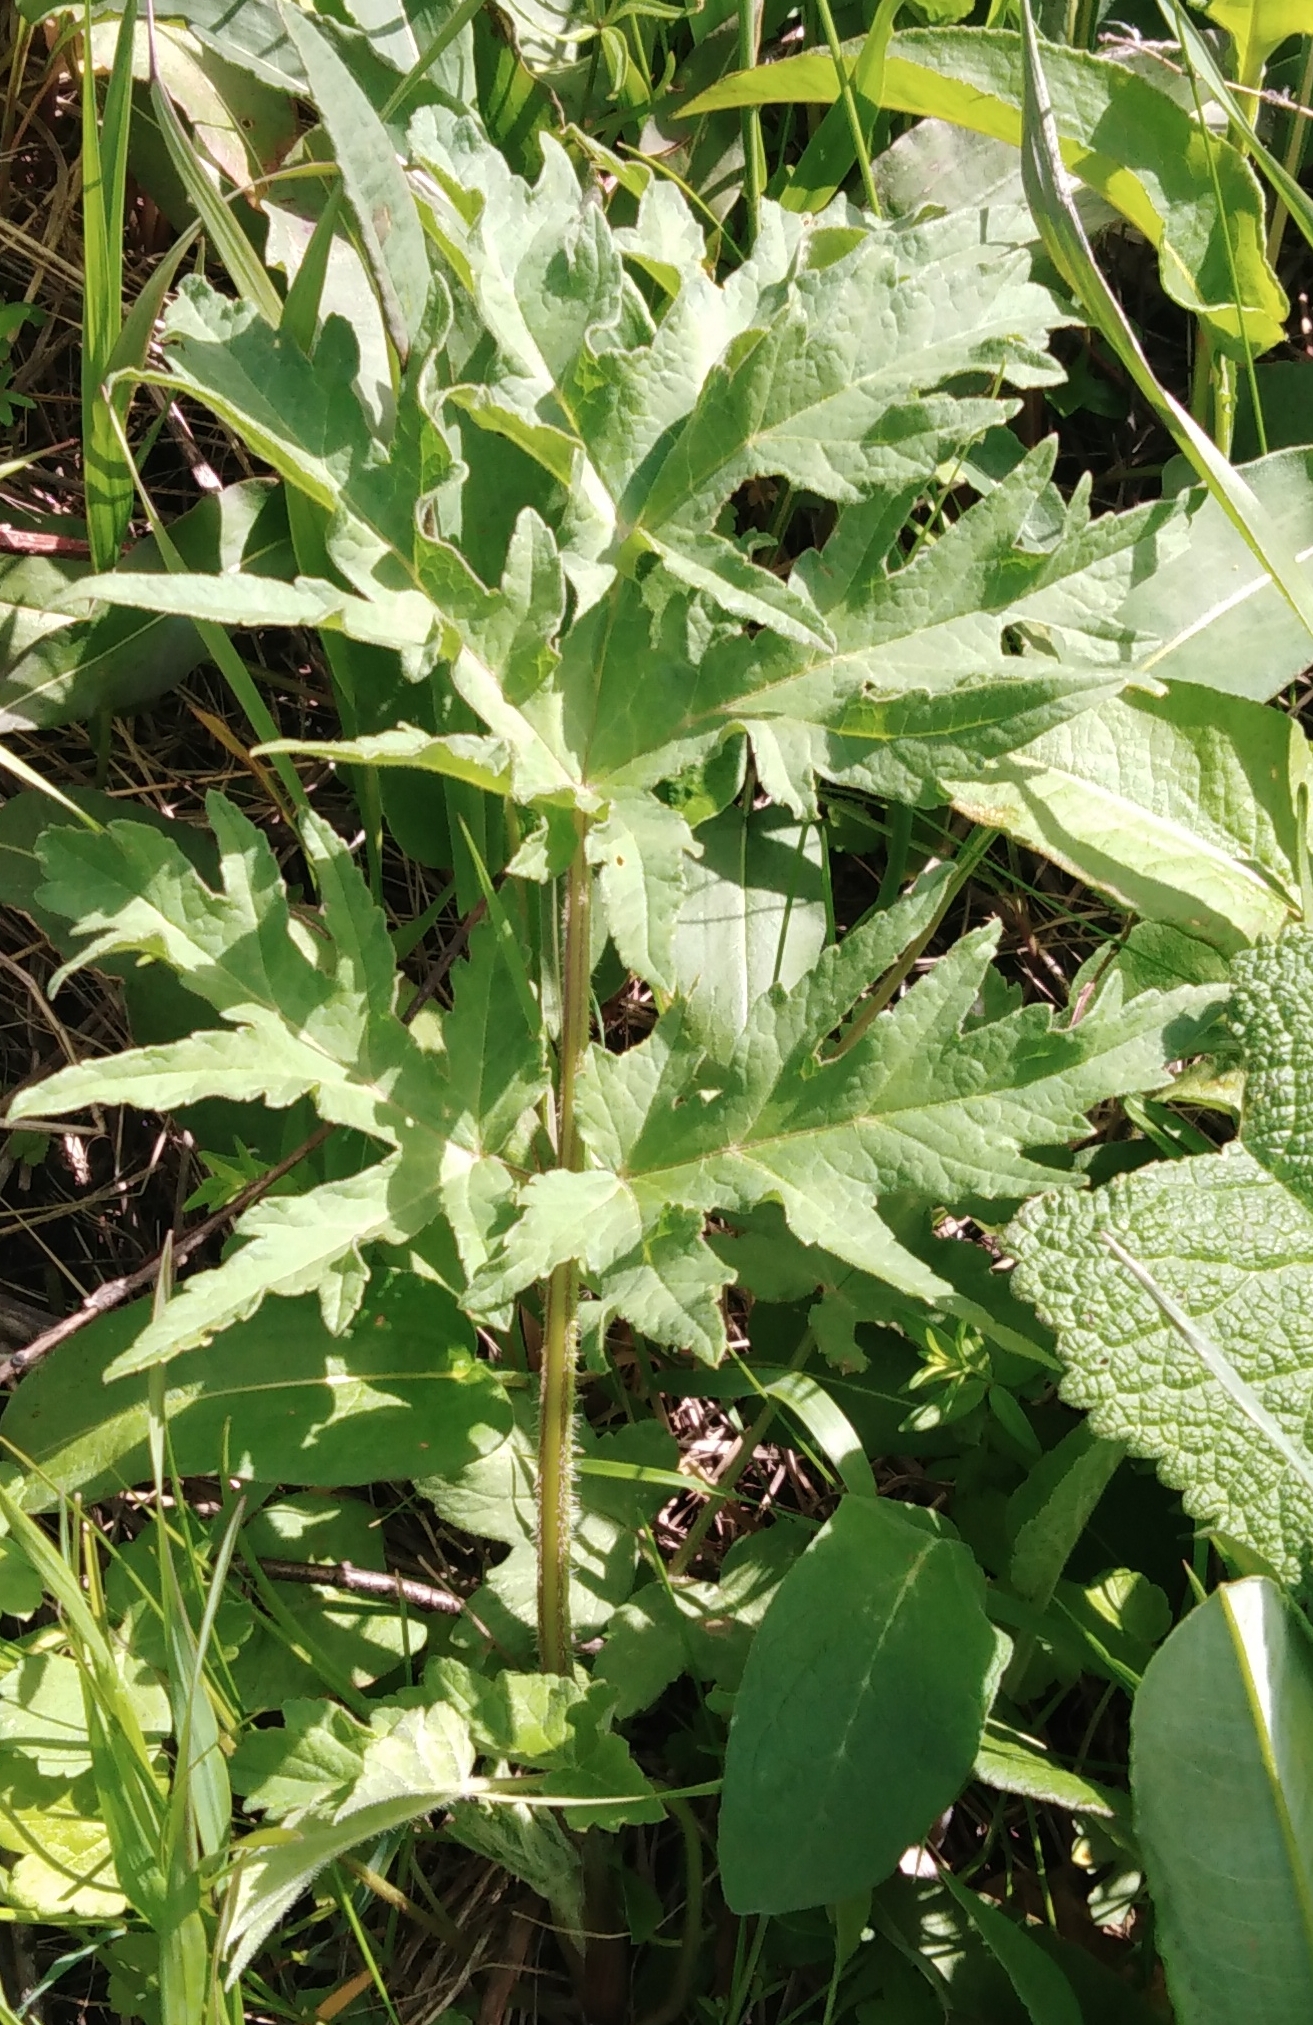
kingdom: Plantae
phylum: Tracheophyta
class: Magnoliopsida
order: Apiales
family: Apiaceae
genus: Heracleum
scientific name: Heracleum sphondylium
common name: Hogweed
